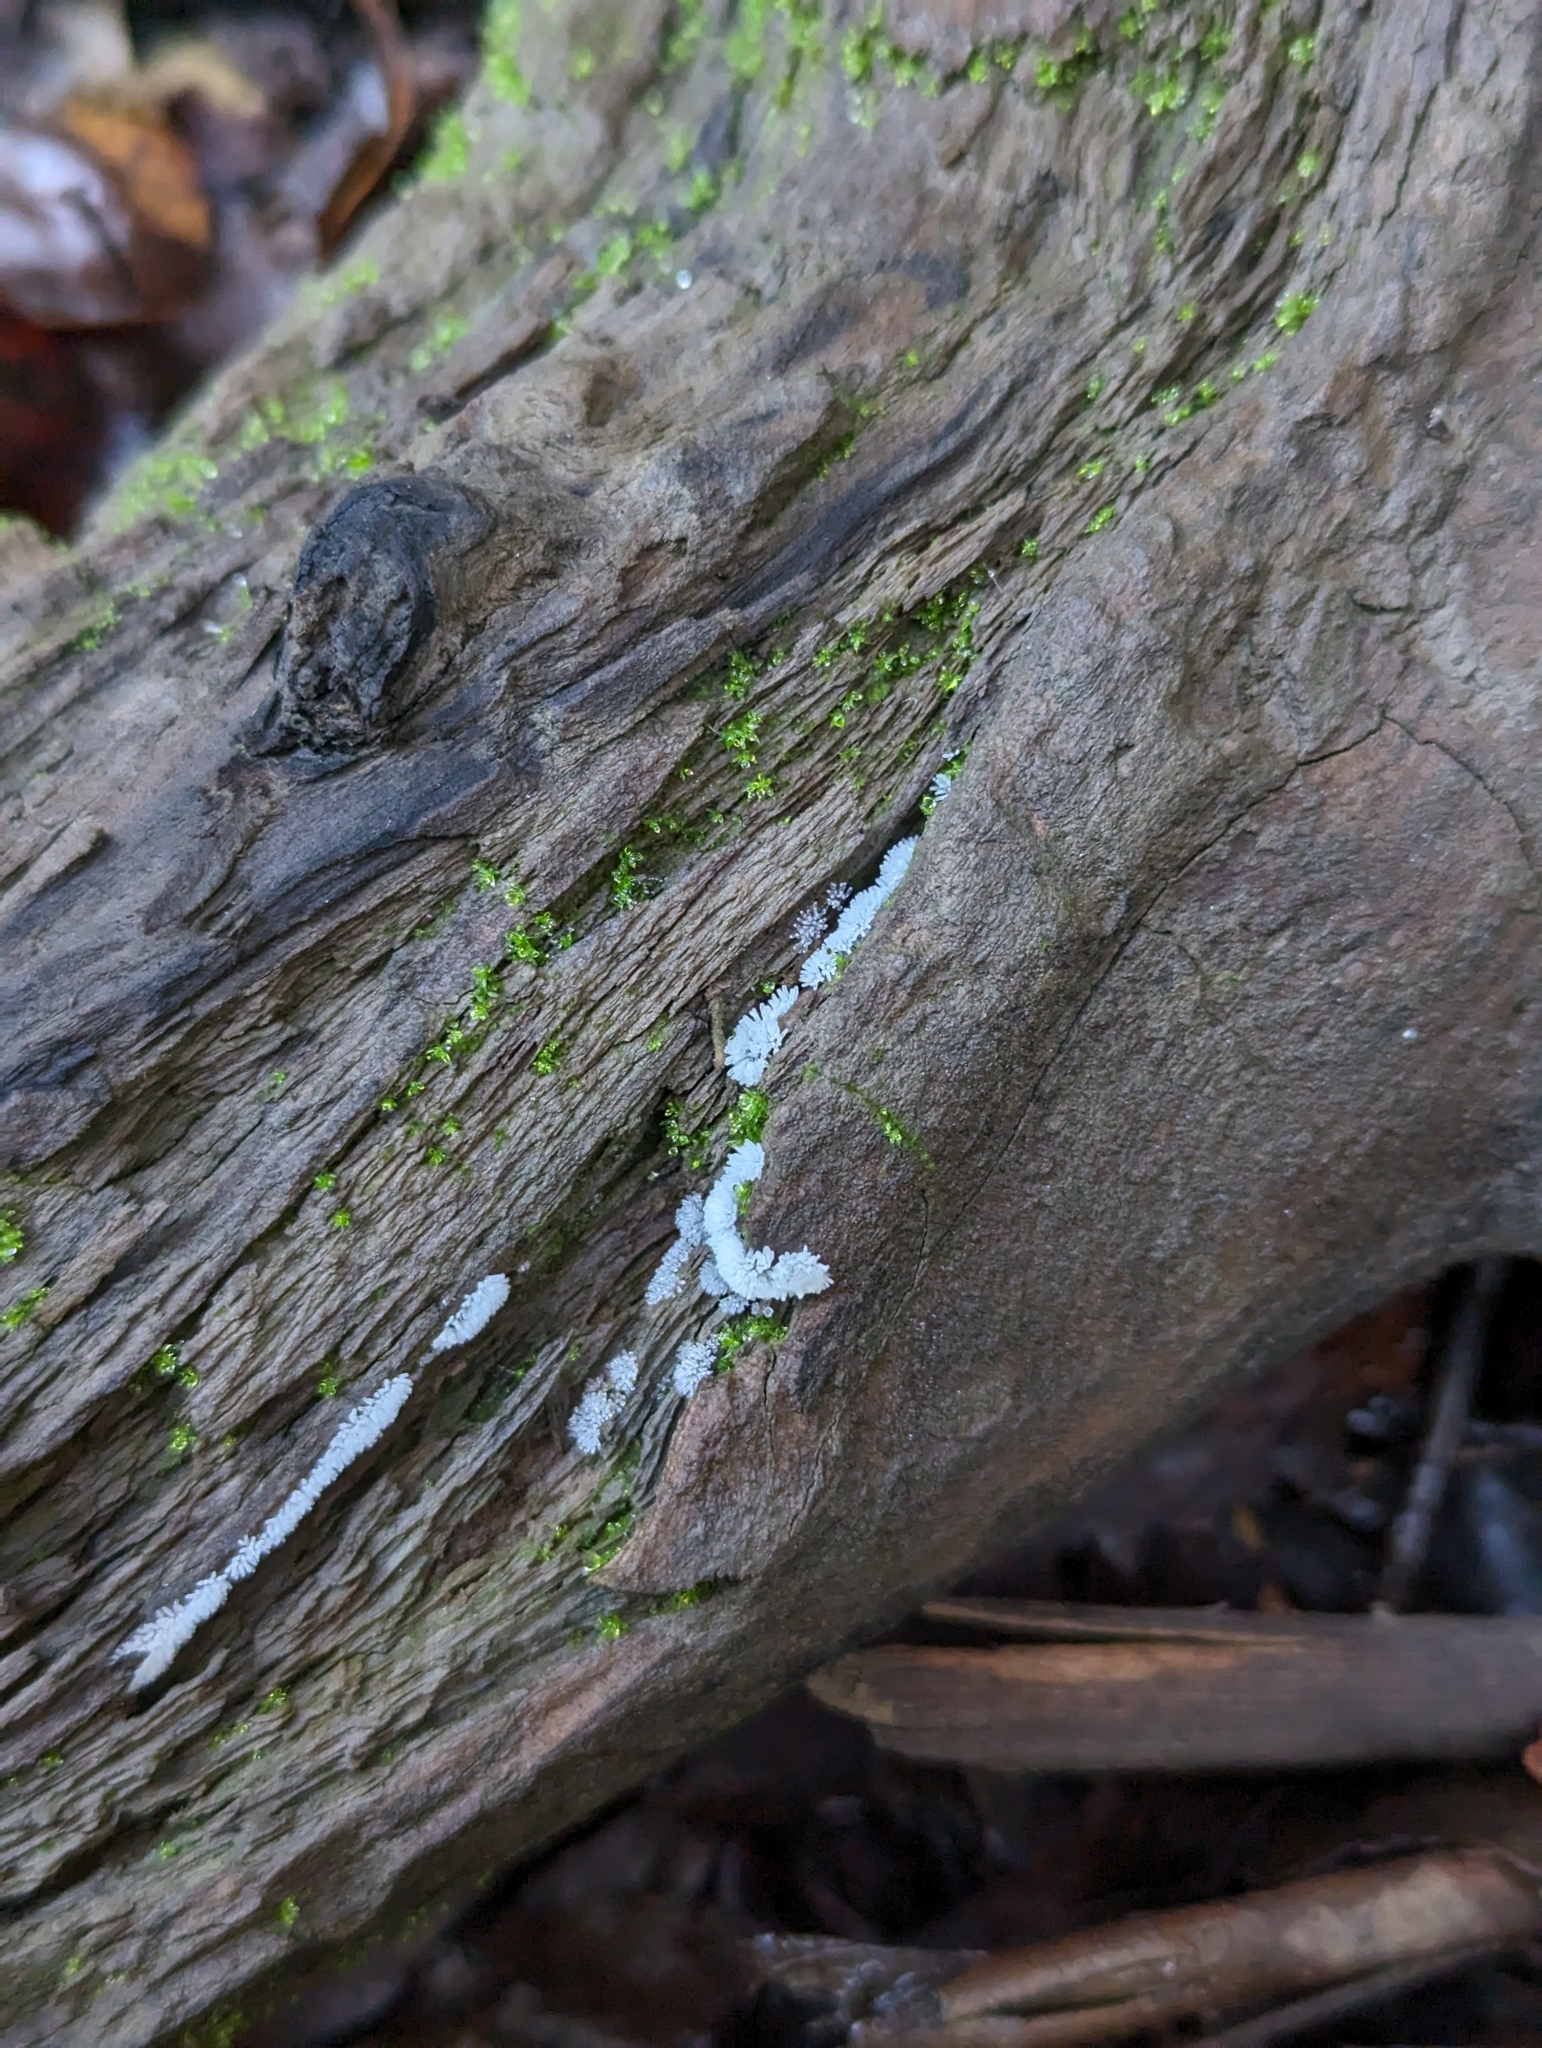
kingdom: Protozoa
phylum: Mycetozoa
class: Protosteliomycetes
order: Ceratiomyxales
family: Ceratiomyxaceae
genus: Ceratiomyxa
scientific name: Ceratiomyxa fruticulosa
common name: Honeycomb coral slime mold
